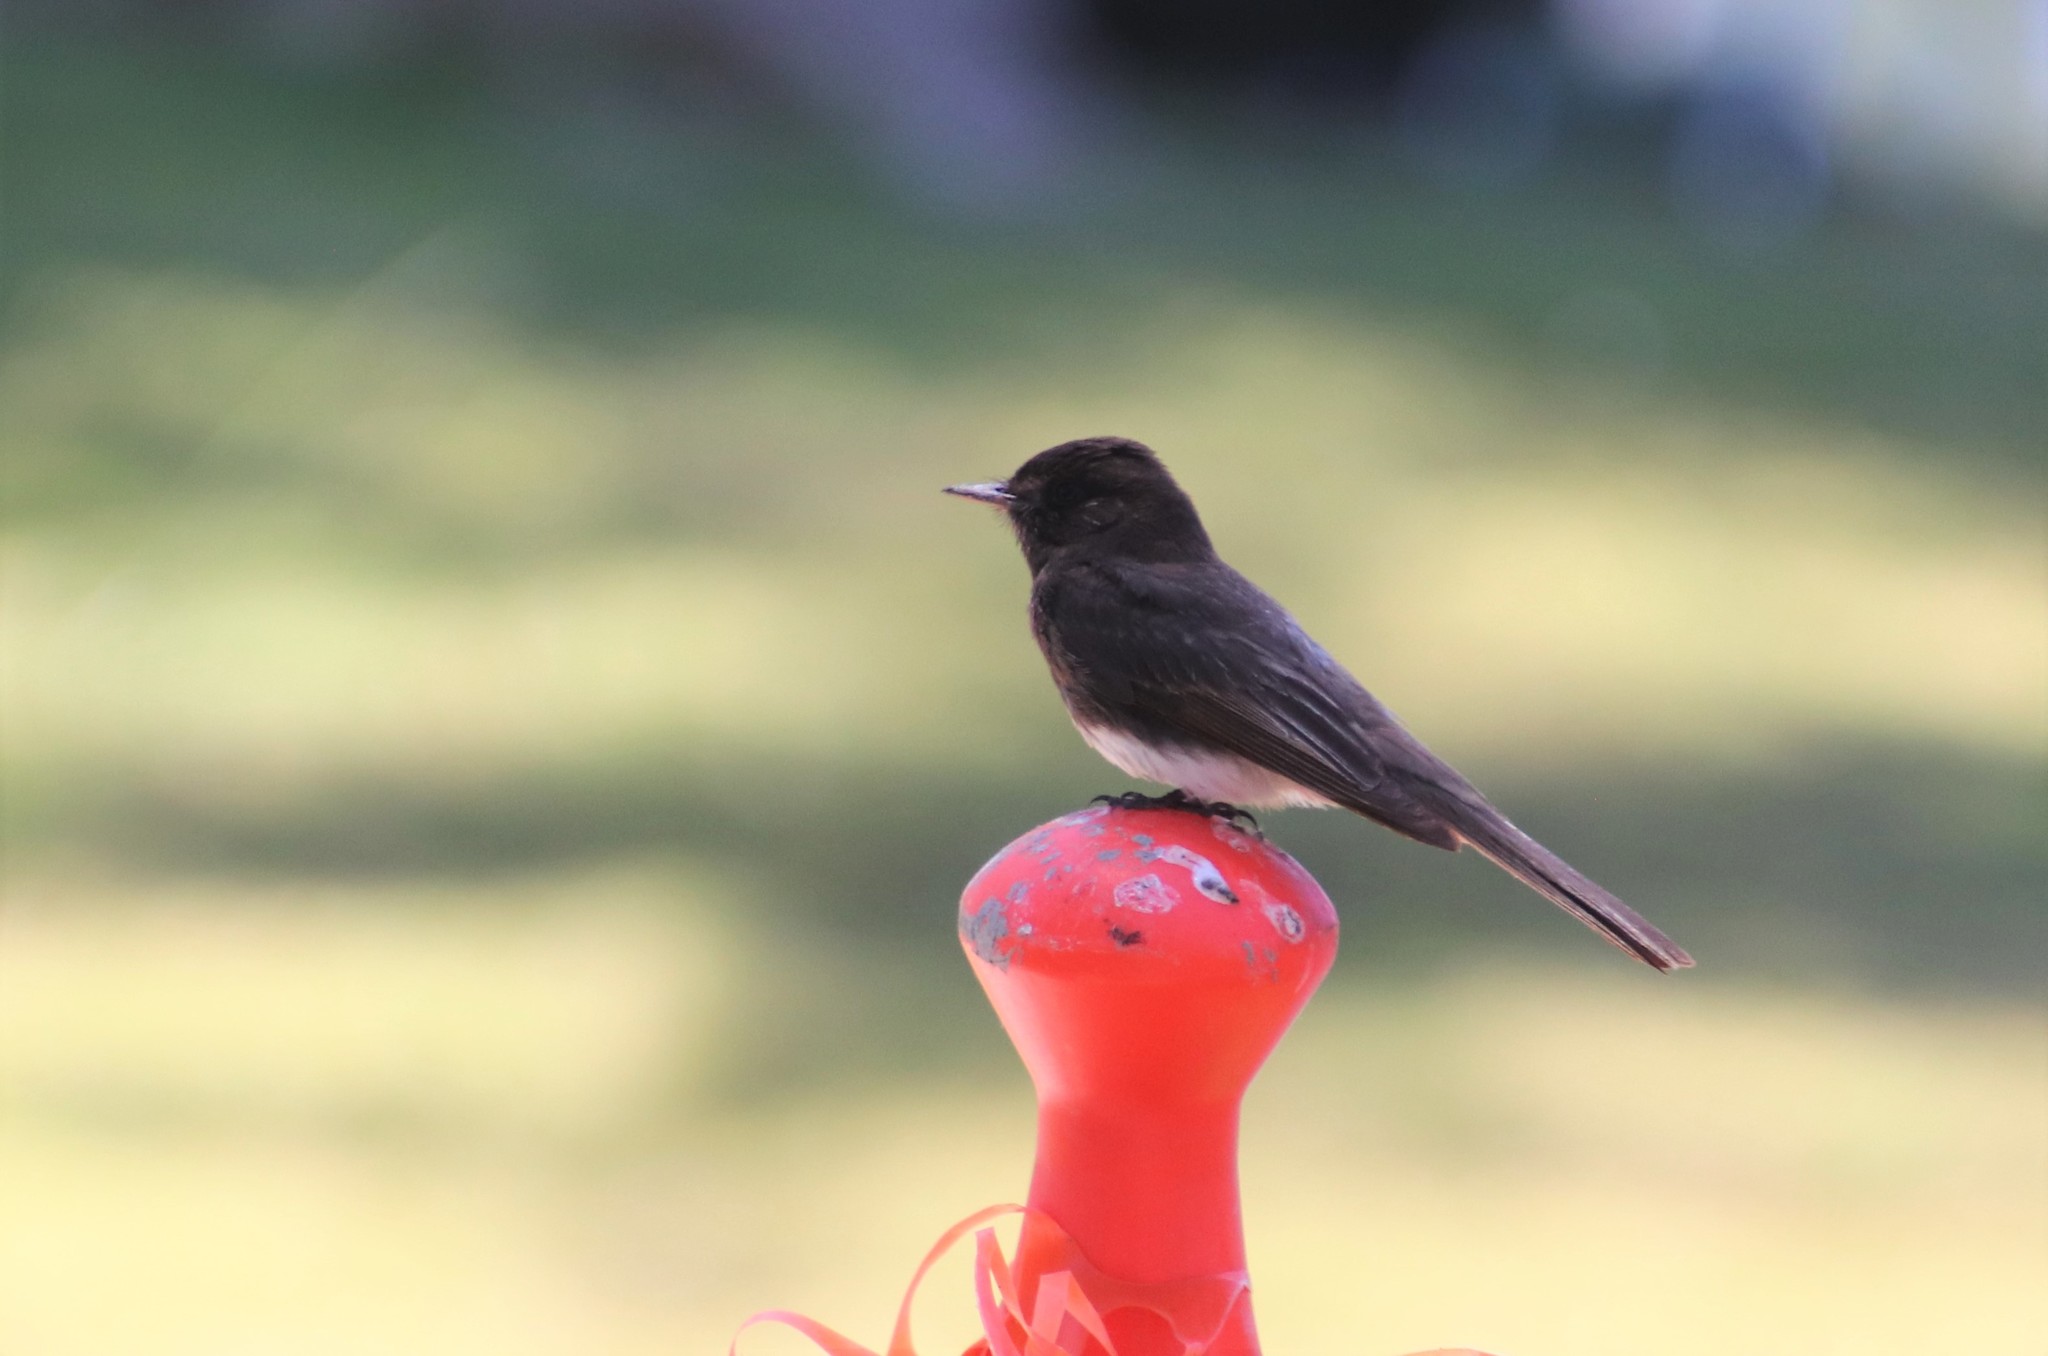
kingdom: Animalia
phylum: Chordata
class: Aves
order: Passeriformes
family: Tyrannidae
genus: Sayornis
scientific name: Sayornis nigricans
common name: Black phoebe
